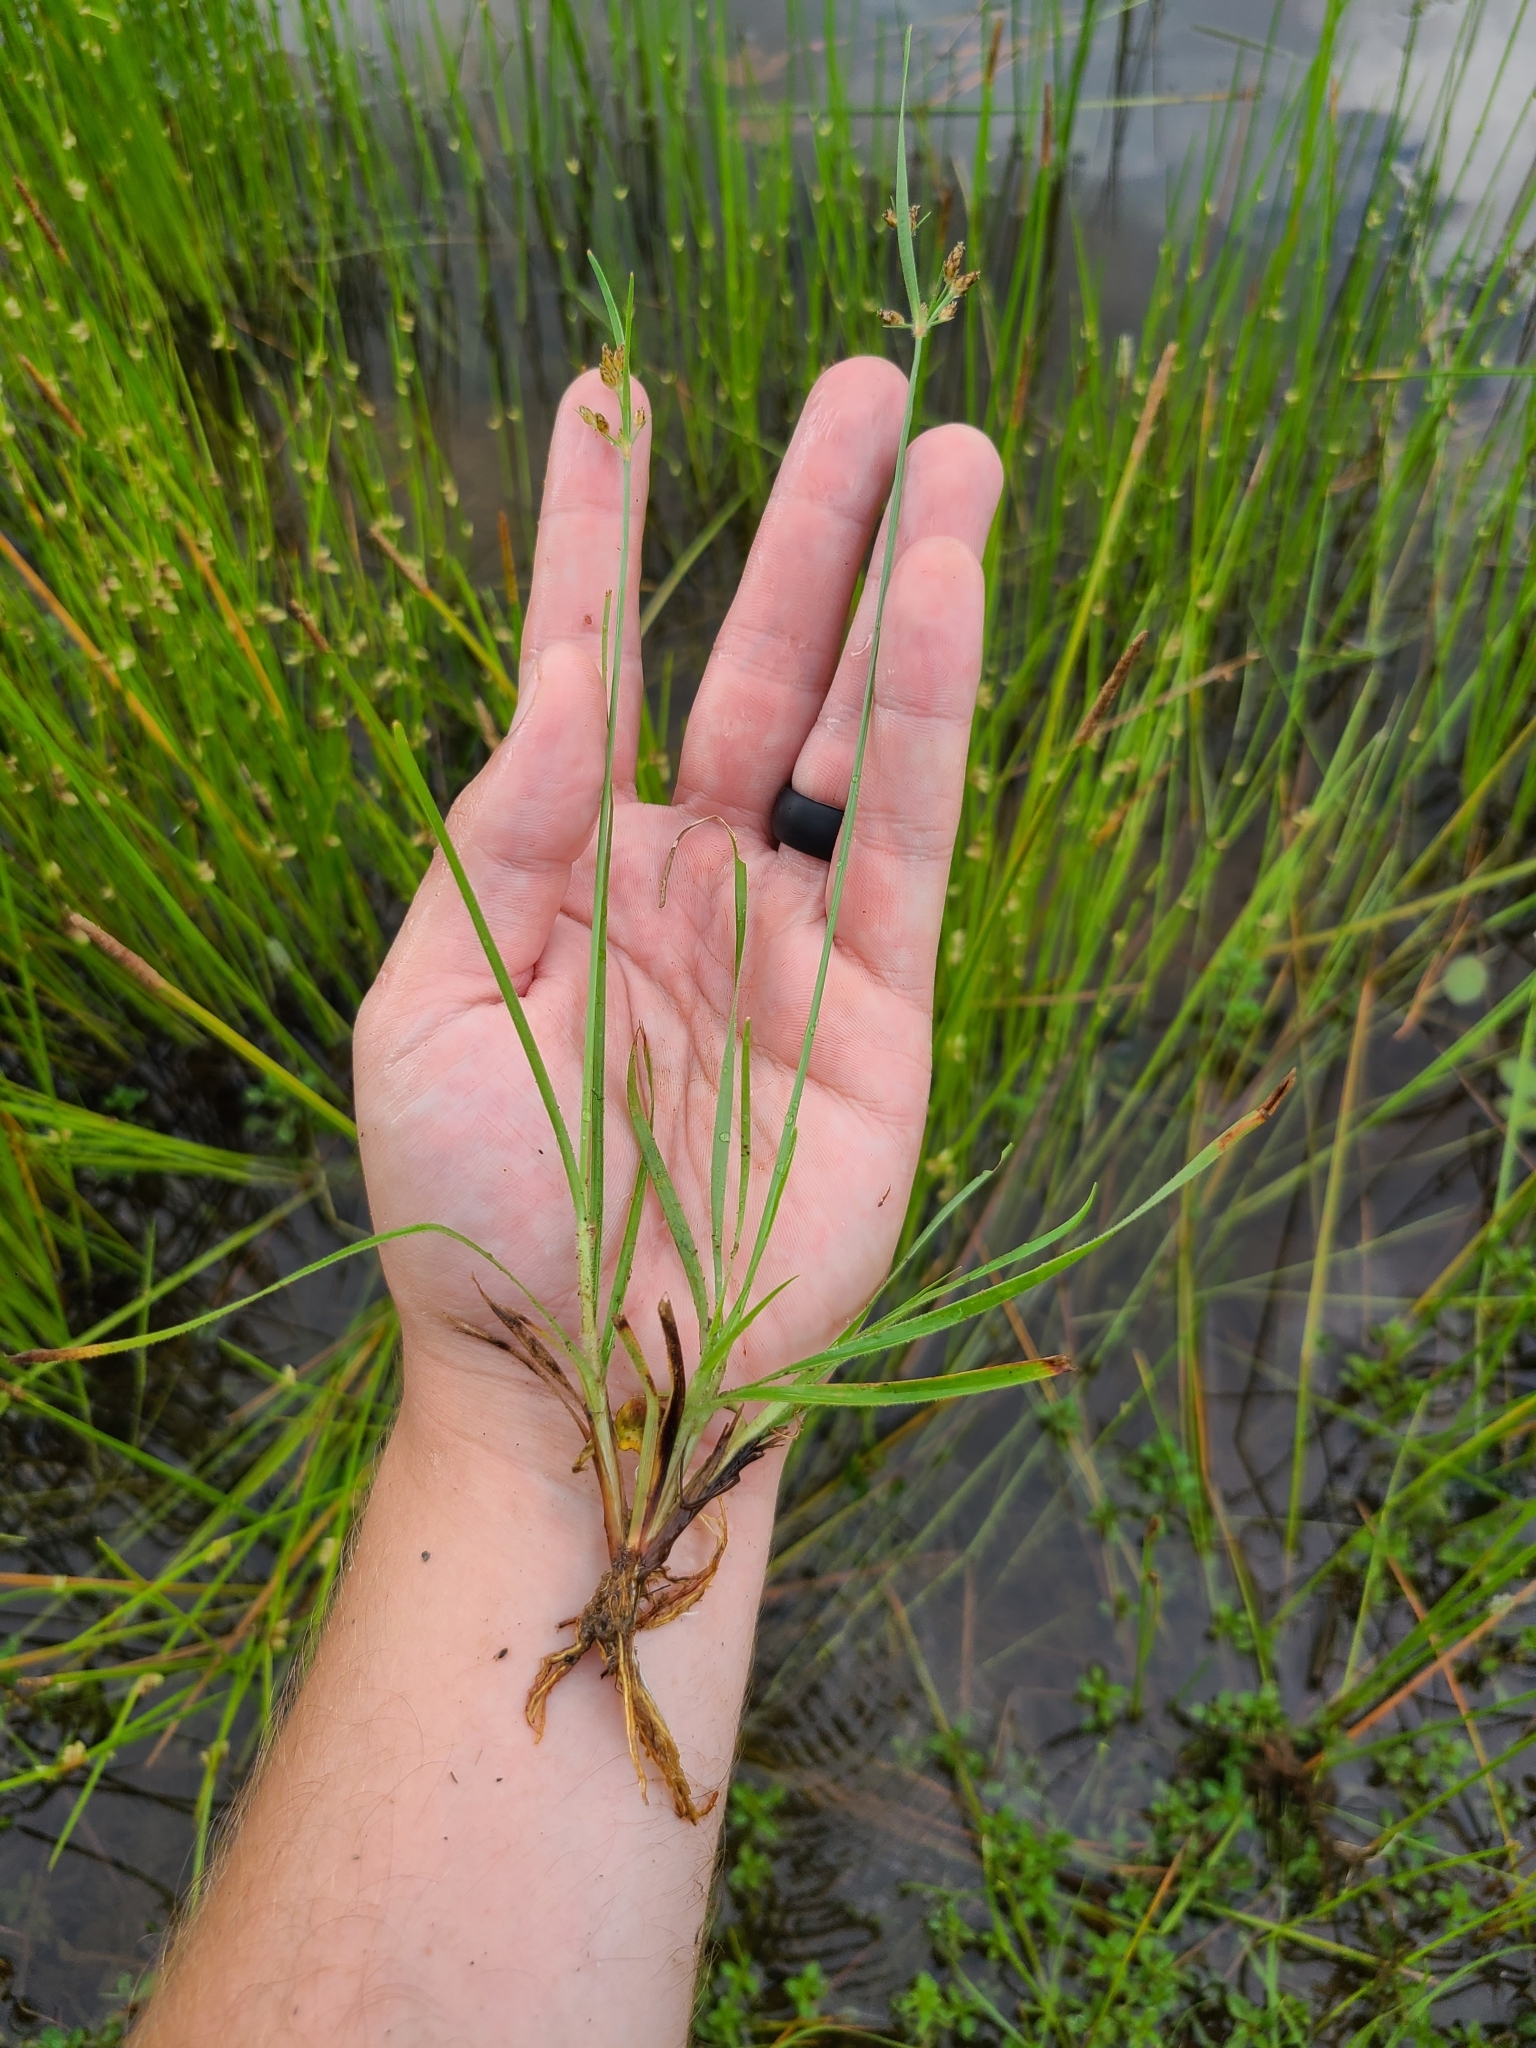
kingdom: Plantae
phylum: Tracheophyta
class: Liliopsida
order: Poales
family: Cyperaceae
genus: Fimbristylis
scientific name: Fimbristylis dichotoma
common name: Forked fimbry
